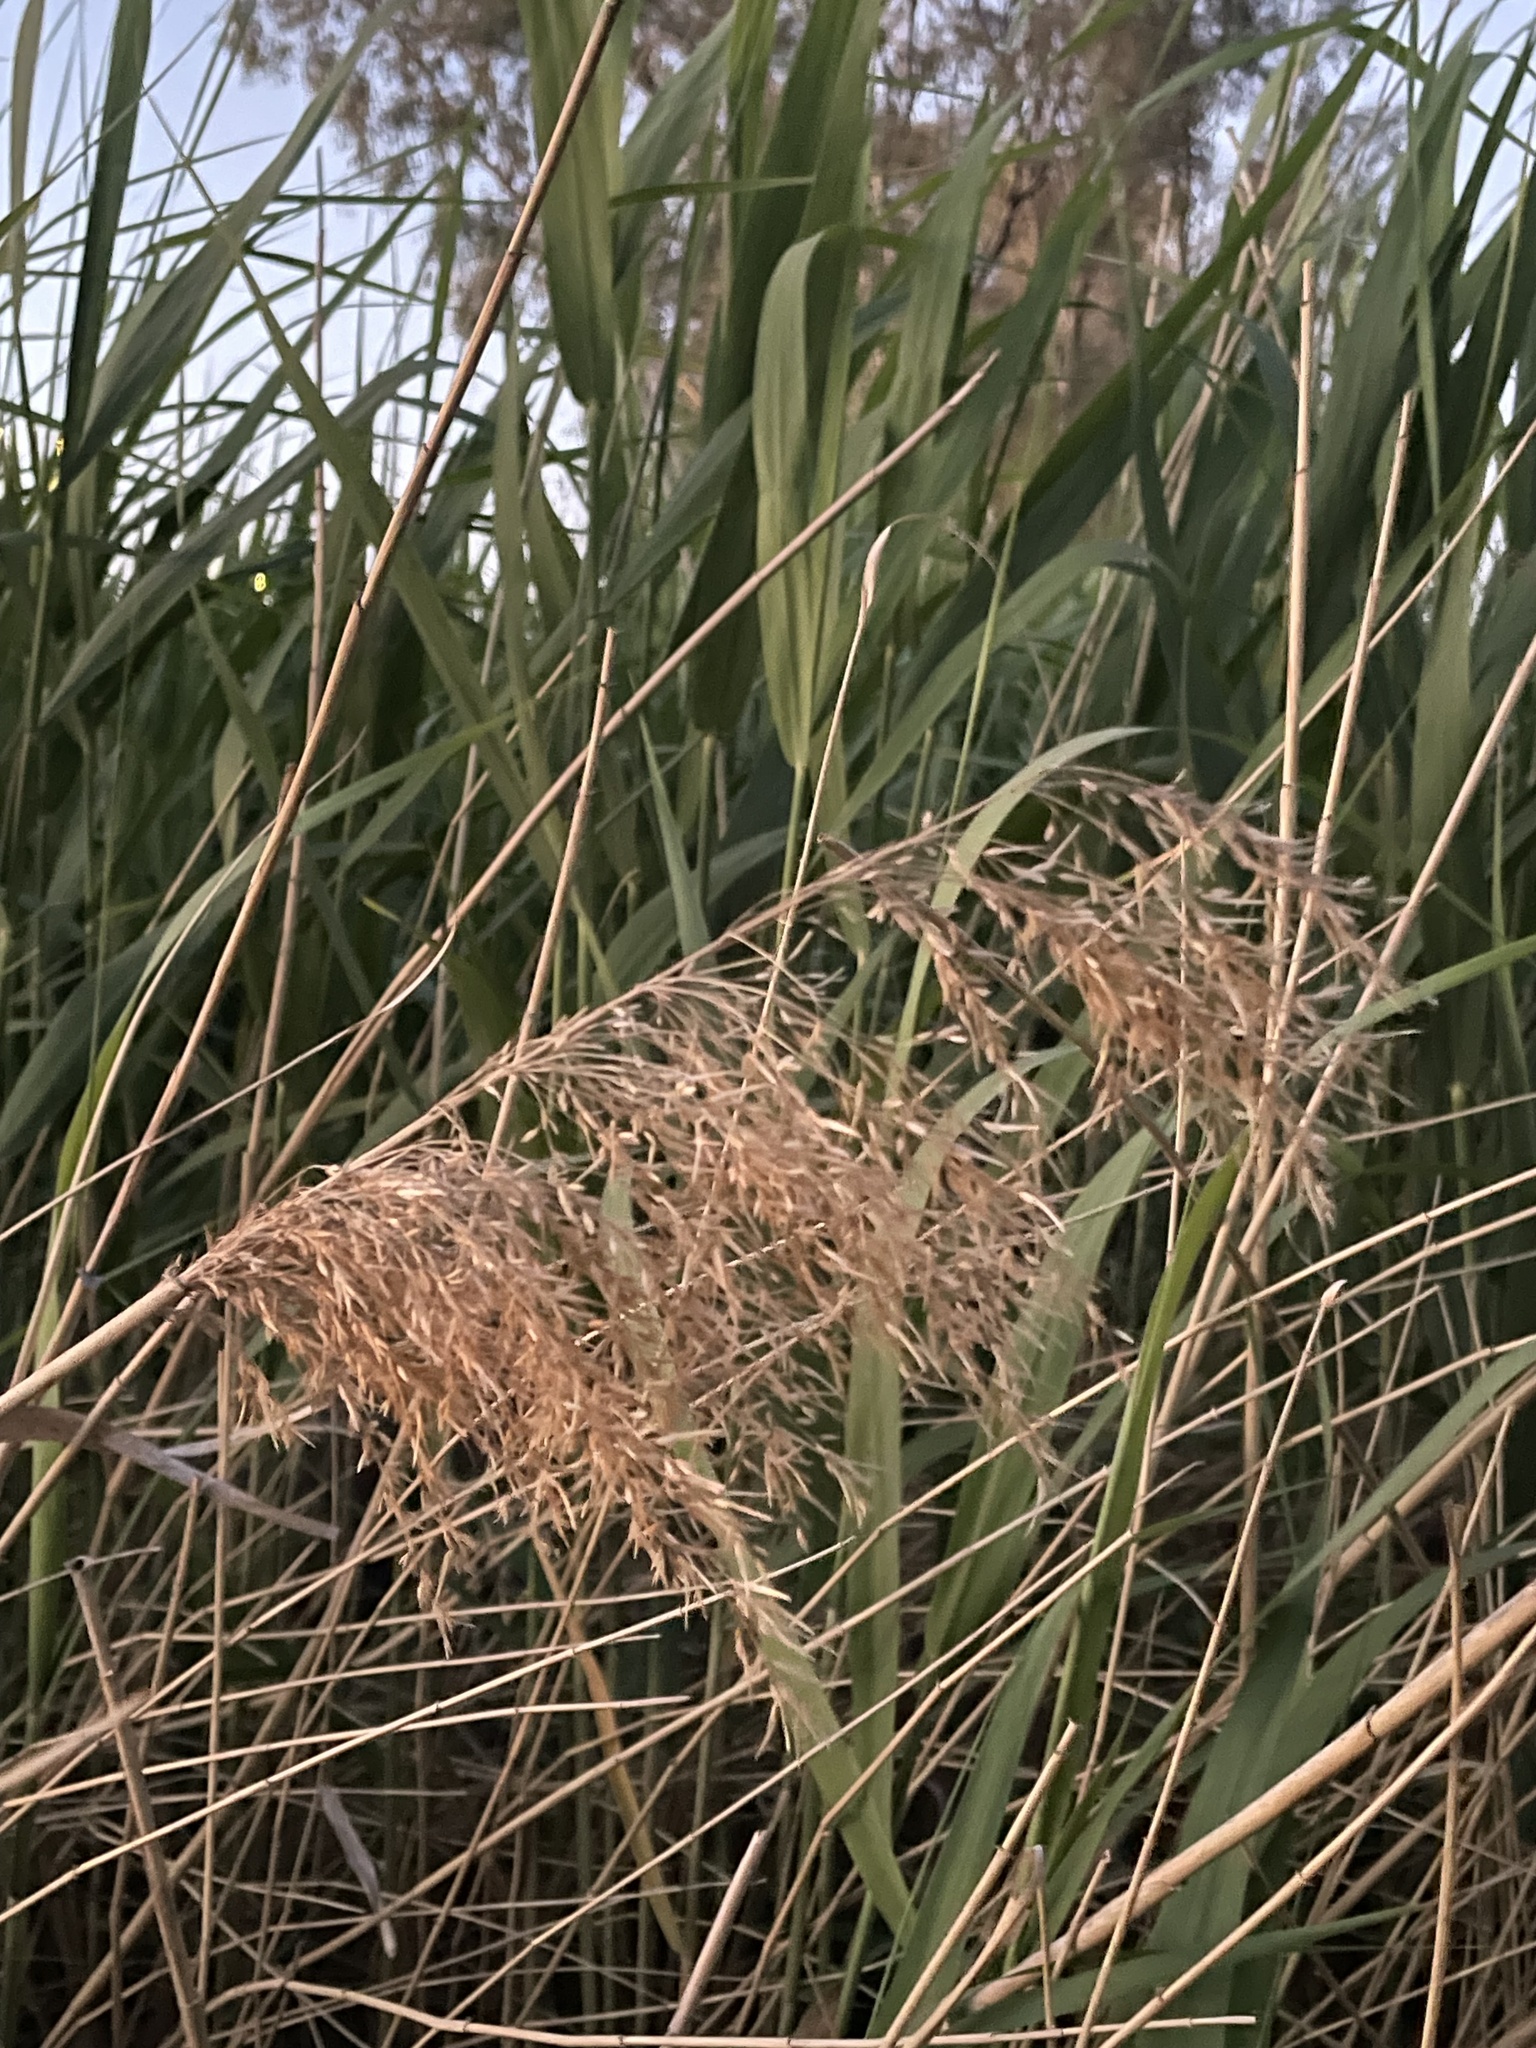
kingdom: Plantae
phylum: Tracheophyta
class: Liliopsida
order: Poales
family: Poaceae
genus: Phragmites
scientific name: Phragmites australis
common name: Common reed
